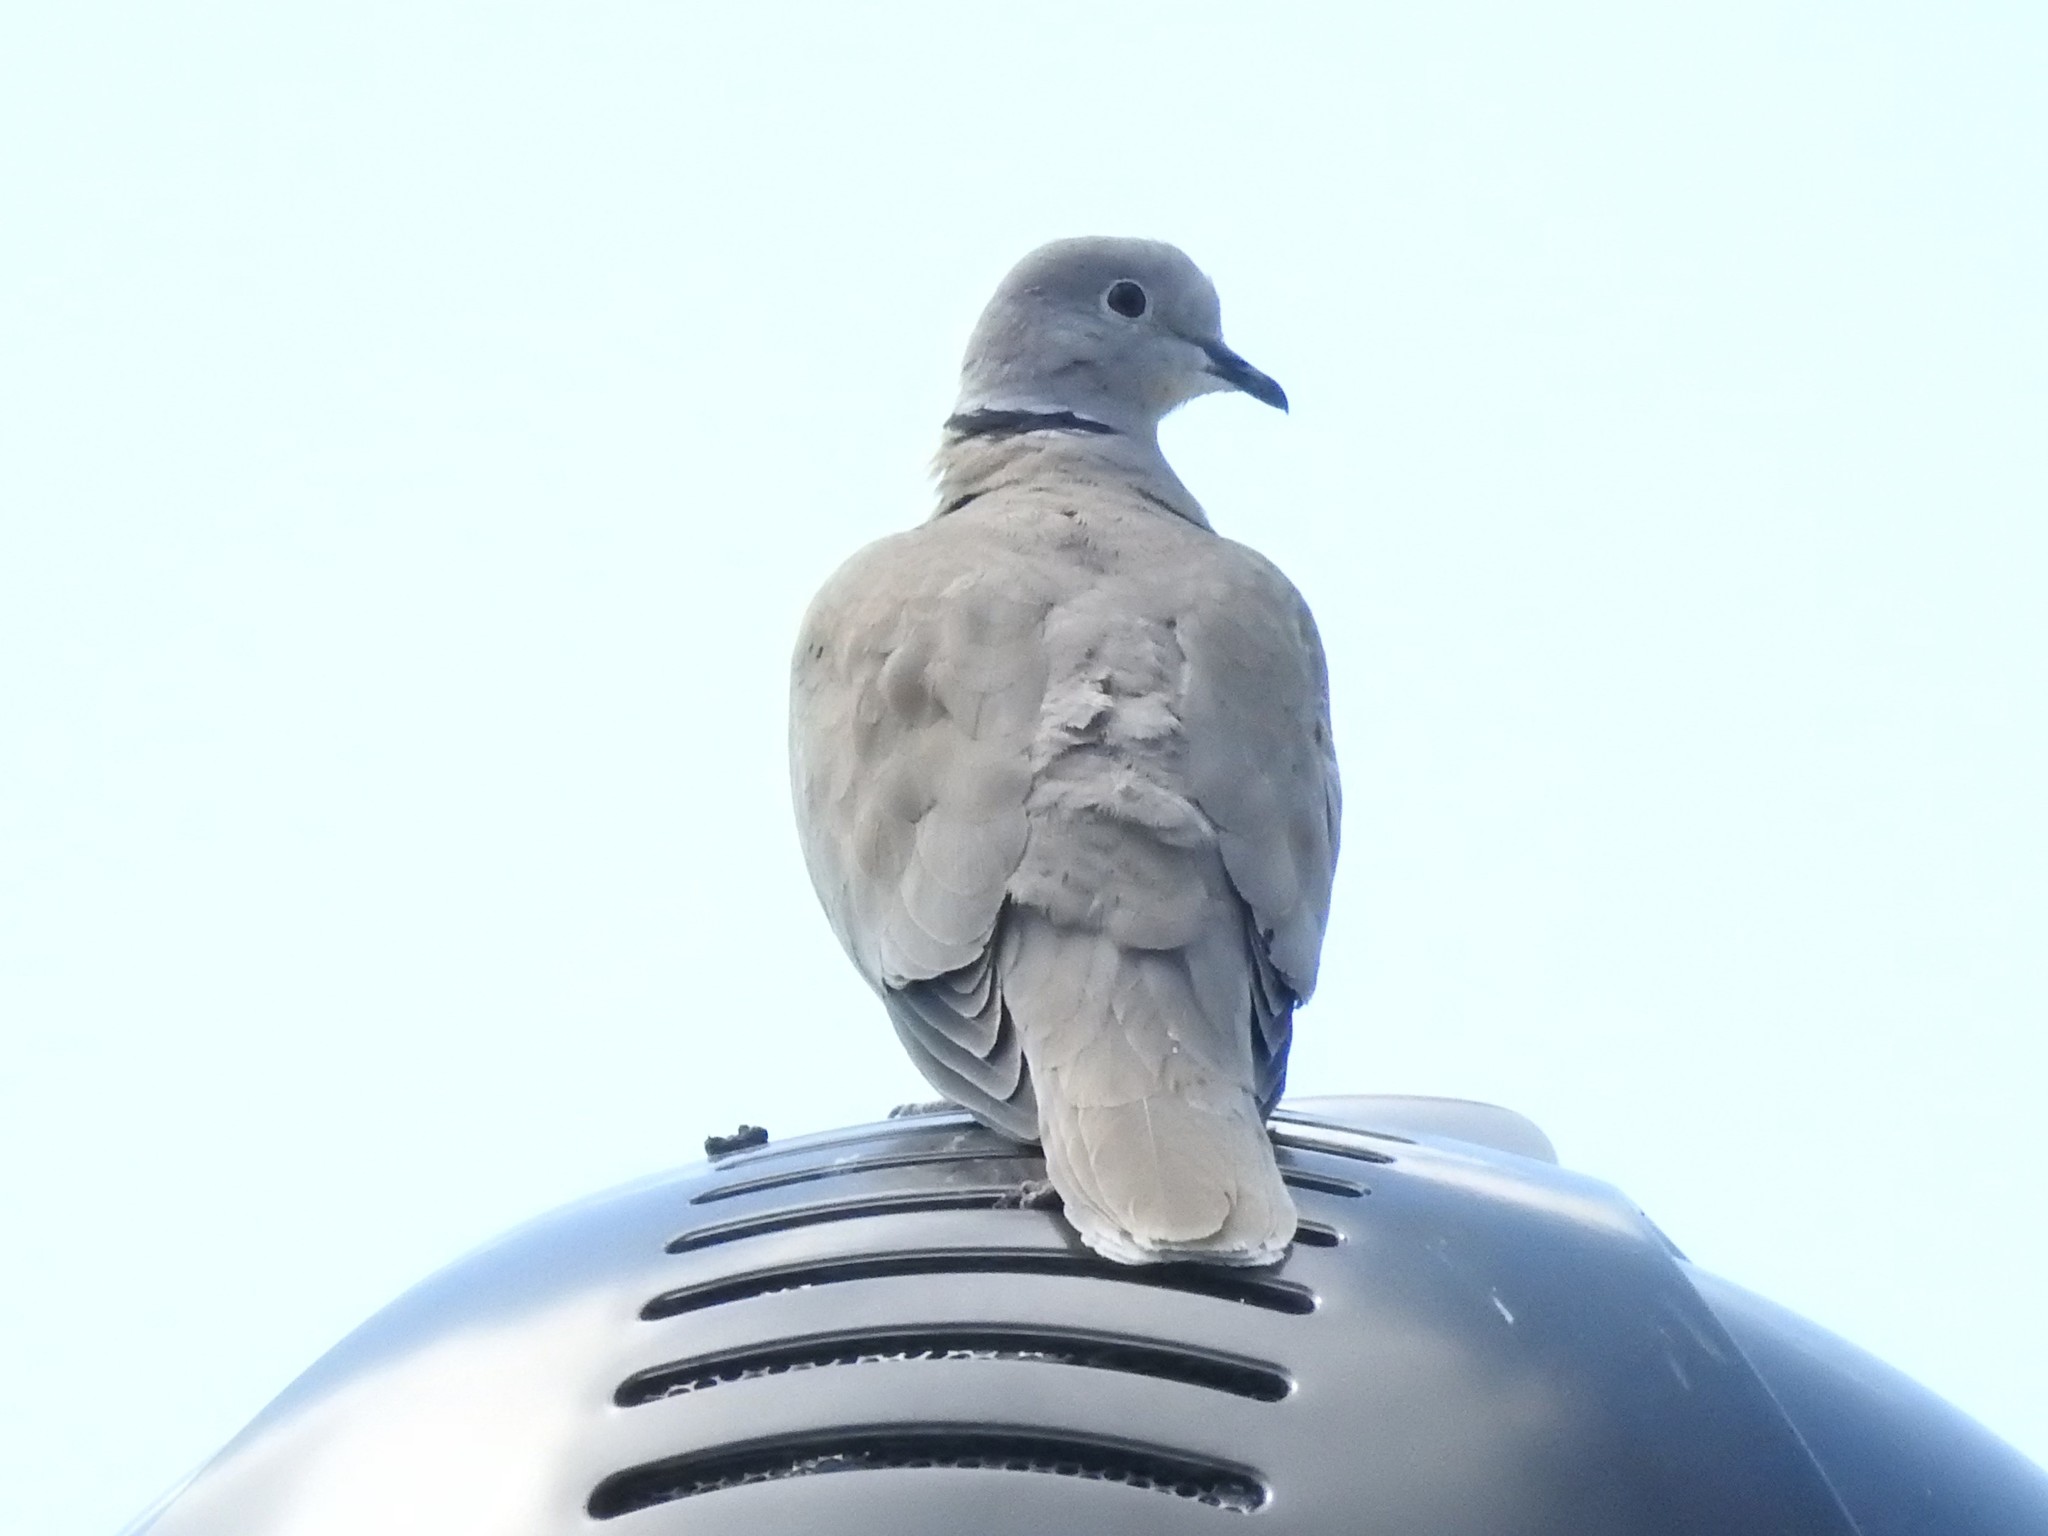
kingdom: Animalia
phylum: Chordata
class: Aves
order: Columbiformes
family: Columbidae
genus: Streptopelia
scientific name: Streptopelia decaocto
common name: Eurasian collared dove
